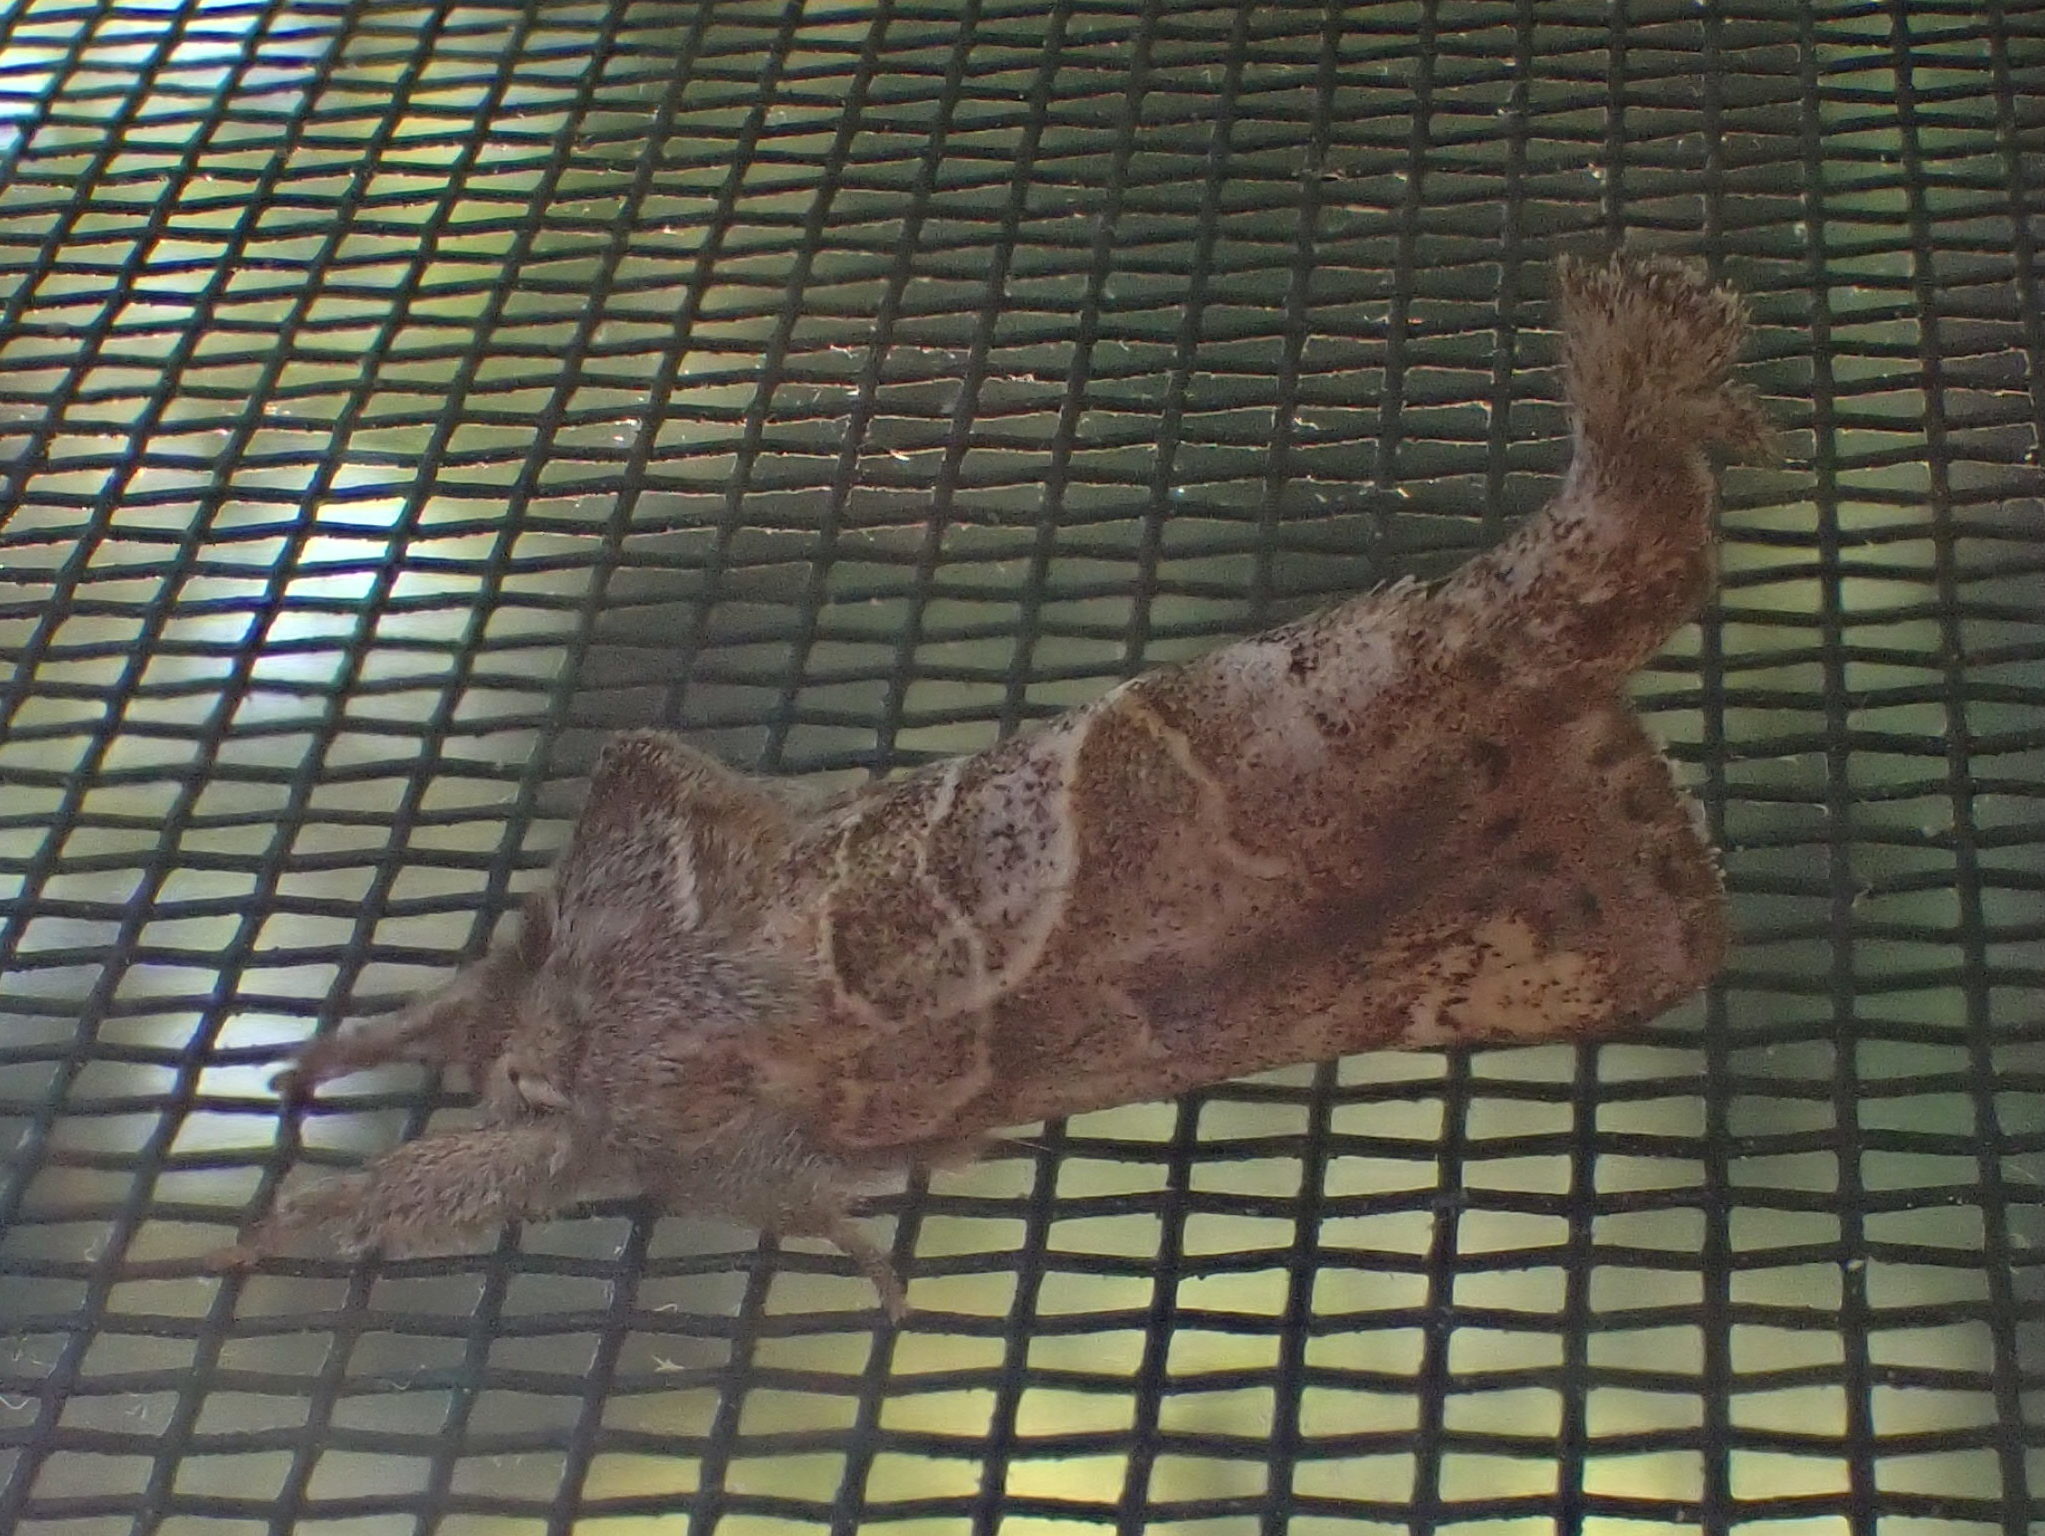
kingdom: Animalia
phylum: Arthropoda
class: Insecta
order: Lepidoptera
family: Notodontidae
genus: Clostera
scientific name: Clostera strigosa
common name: Striped chocolate-tip moth
